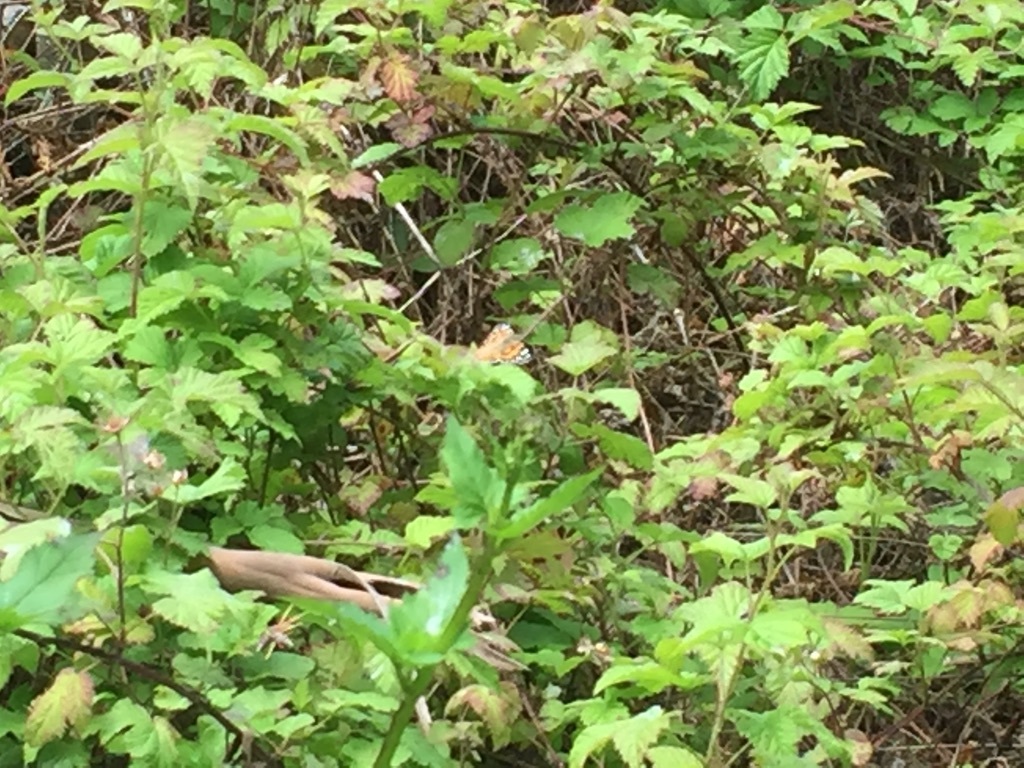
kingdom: Animalia
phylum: Arthropoda
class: Insecta
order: Lepidoptera
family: Nymphalidae
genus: Vanessa
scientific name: Vanessa cardui
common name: Painted lady
